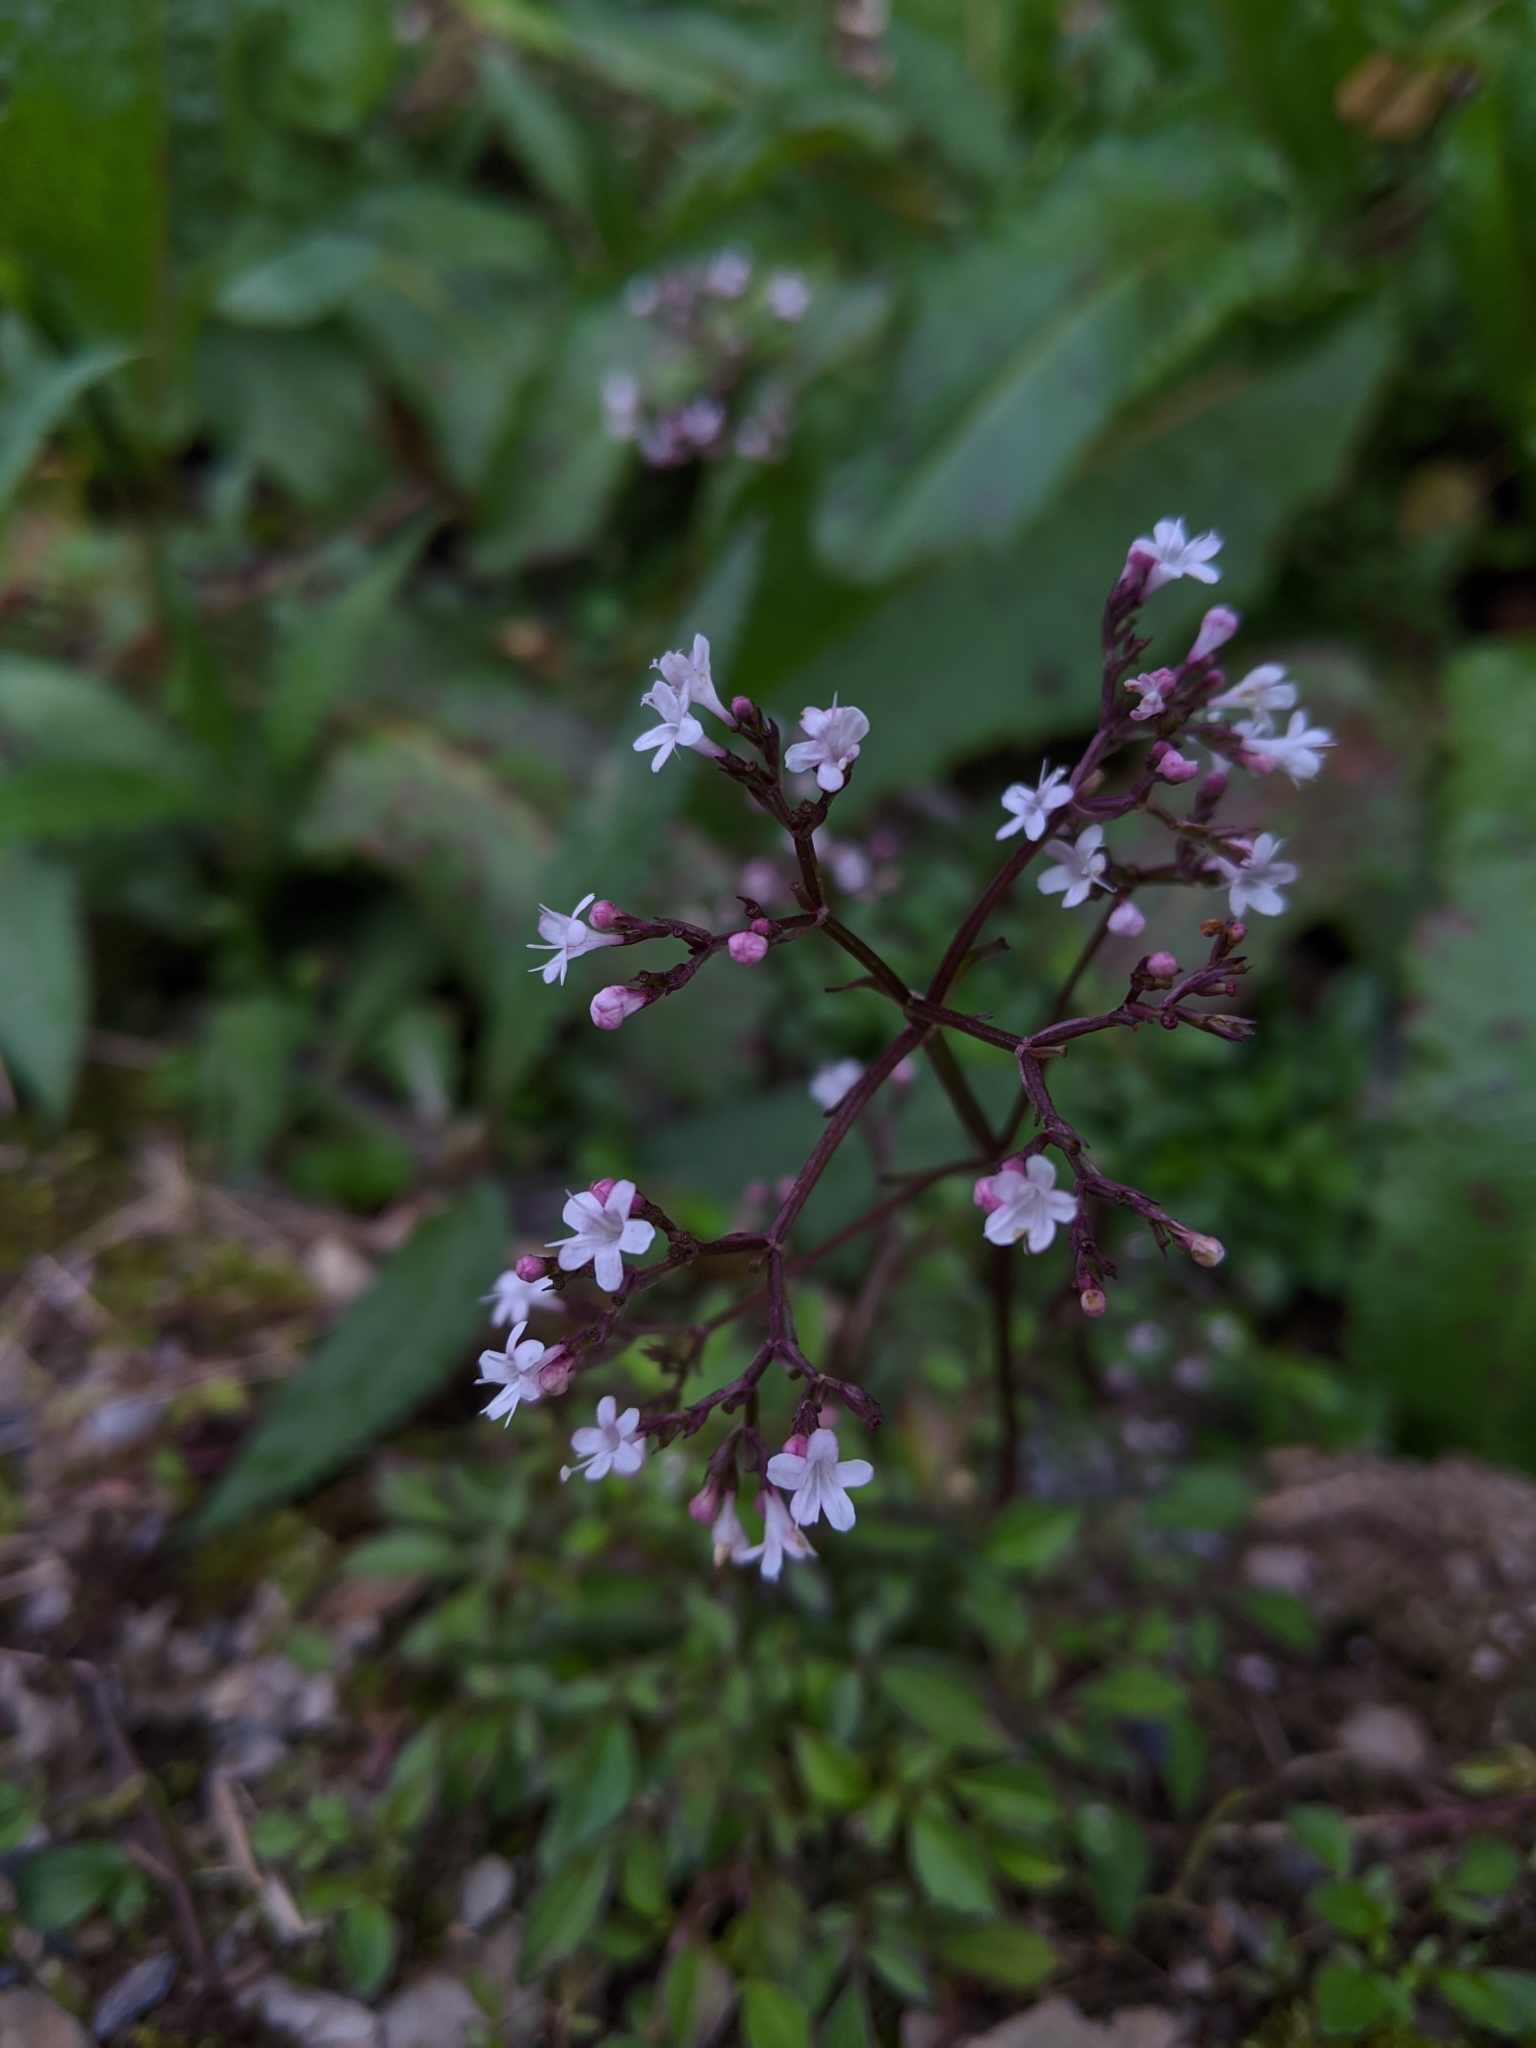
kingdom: Plantae
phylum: Tracheophyta
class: Magnoliopsida
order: Dipsacales
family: Caprifoliaceae
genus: Valeriana
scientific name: Valeriana kawakamii
